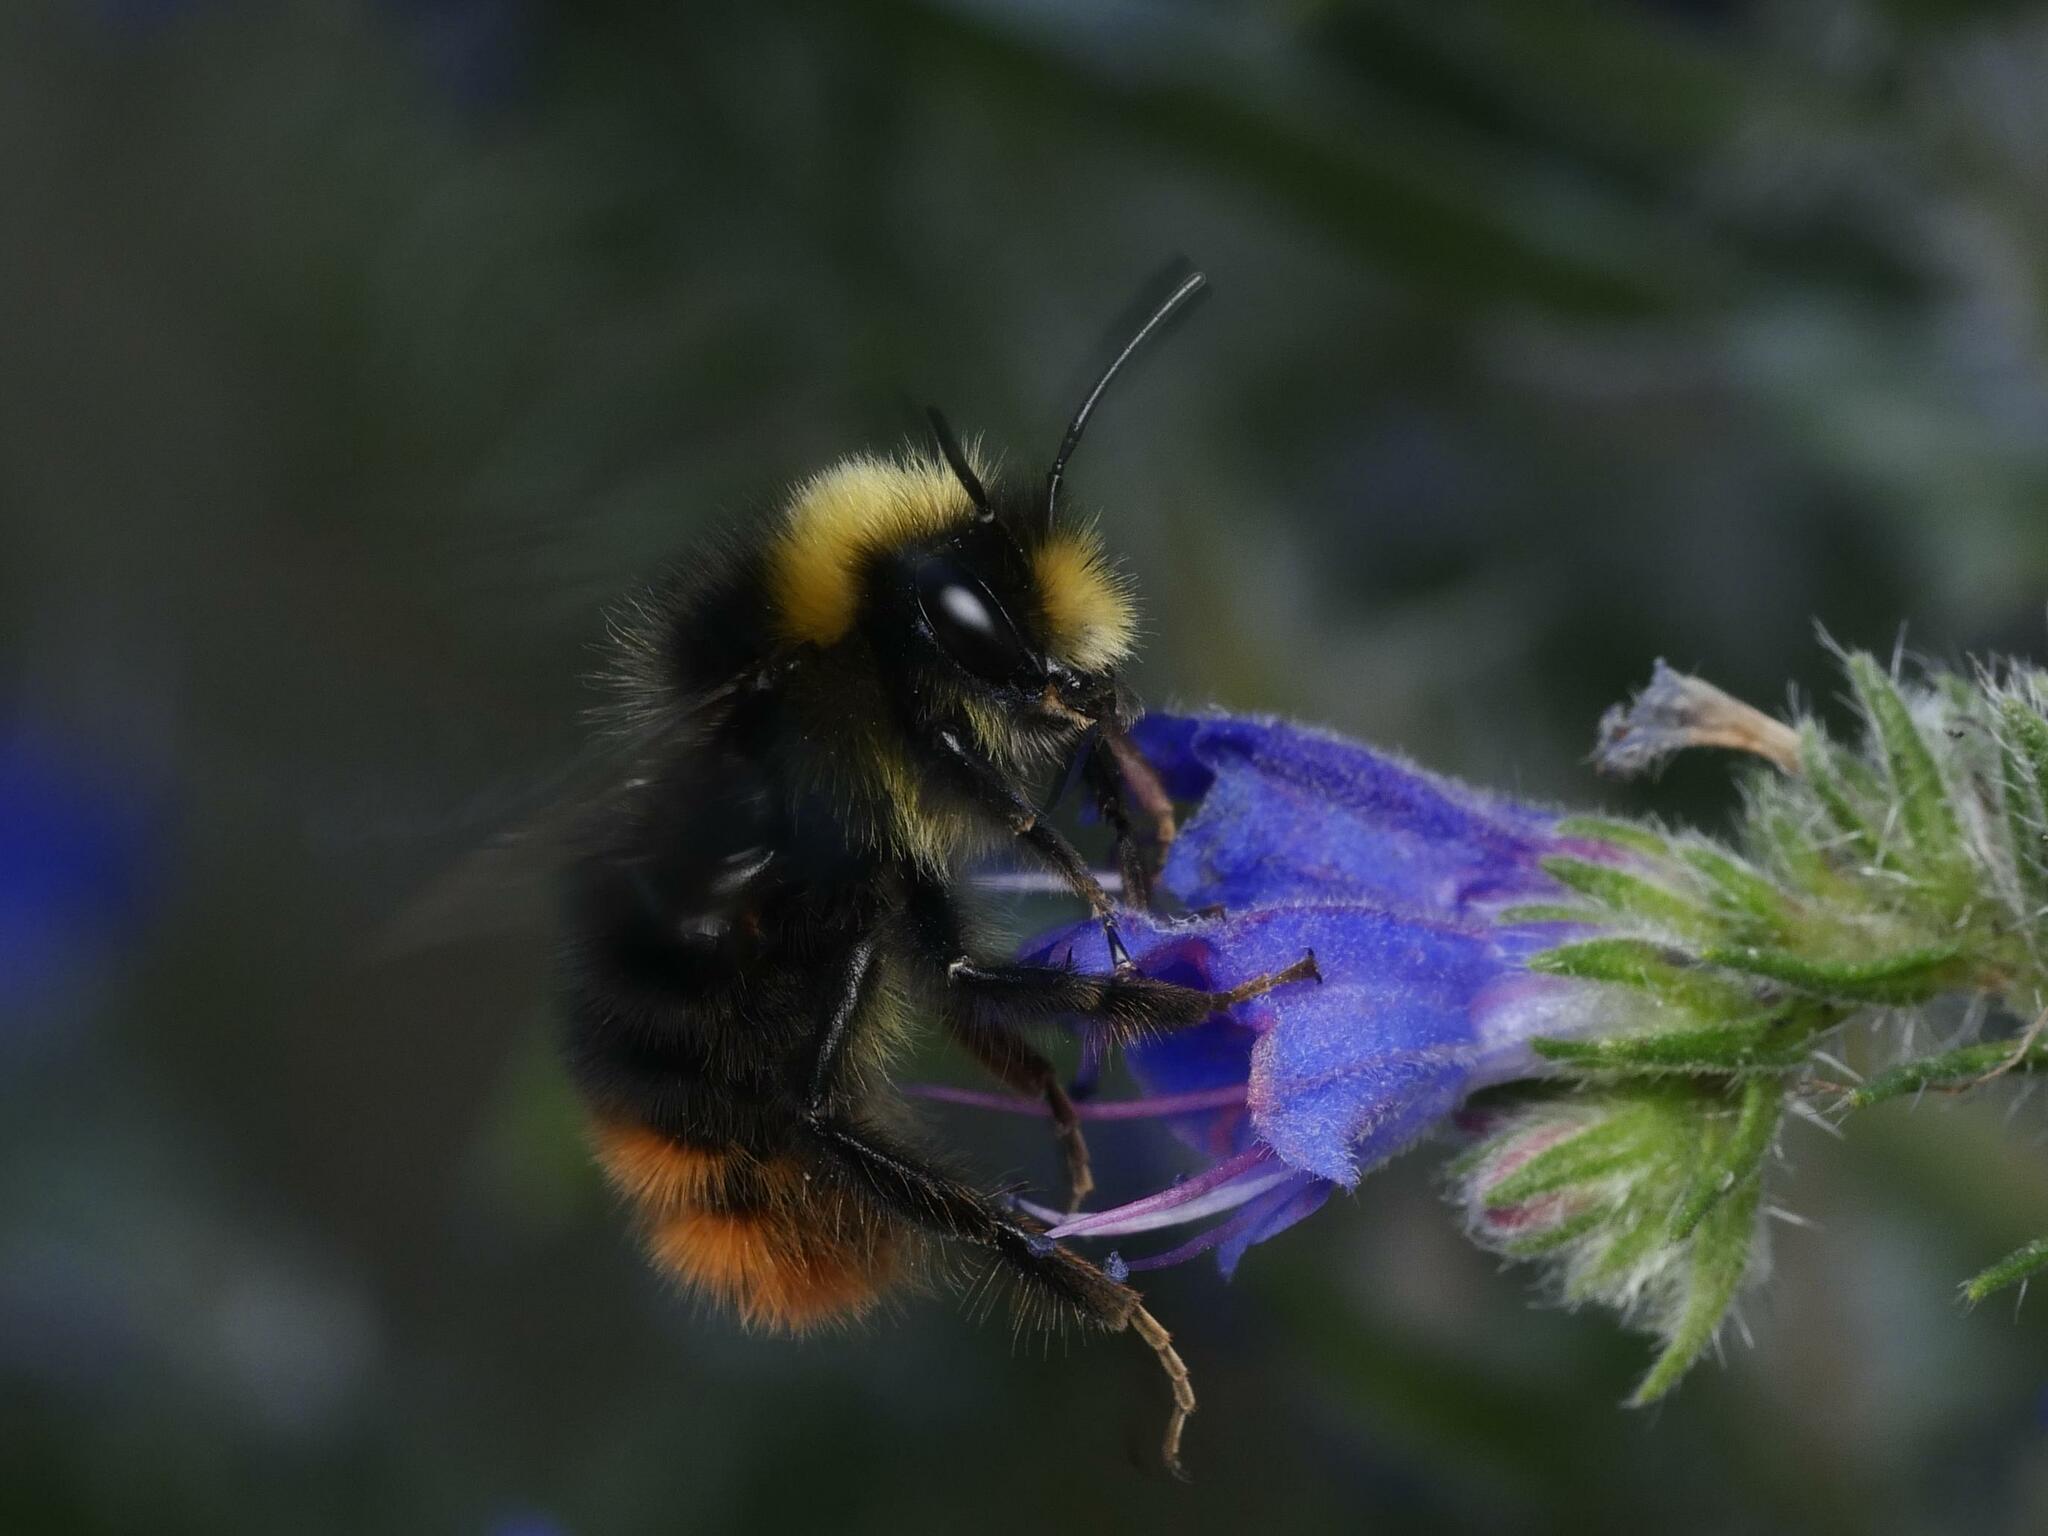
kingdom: Animalia
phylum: Arthropoda
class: Insecta
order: Hymenoptera
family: Apidae
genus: Bombus
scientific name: Bombus lapidarius
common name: Large red-tailed humble-bee
